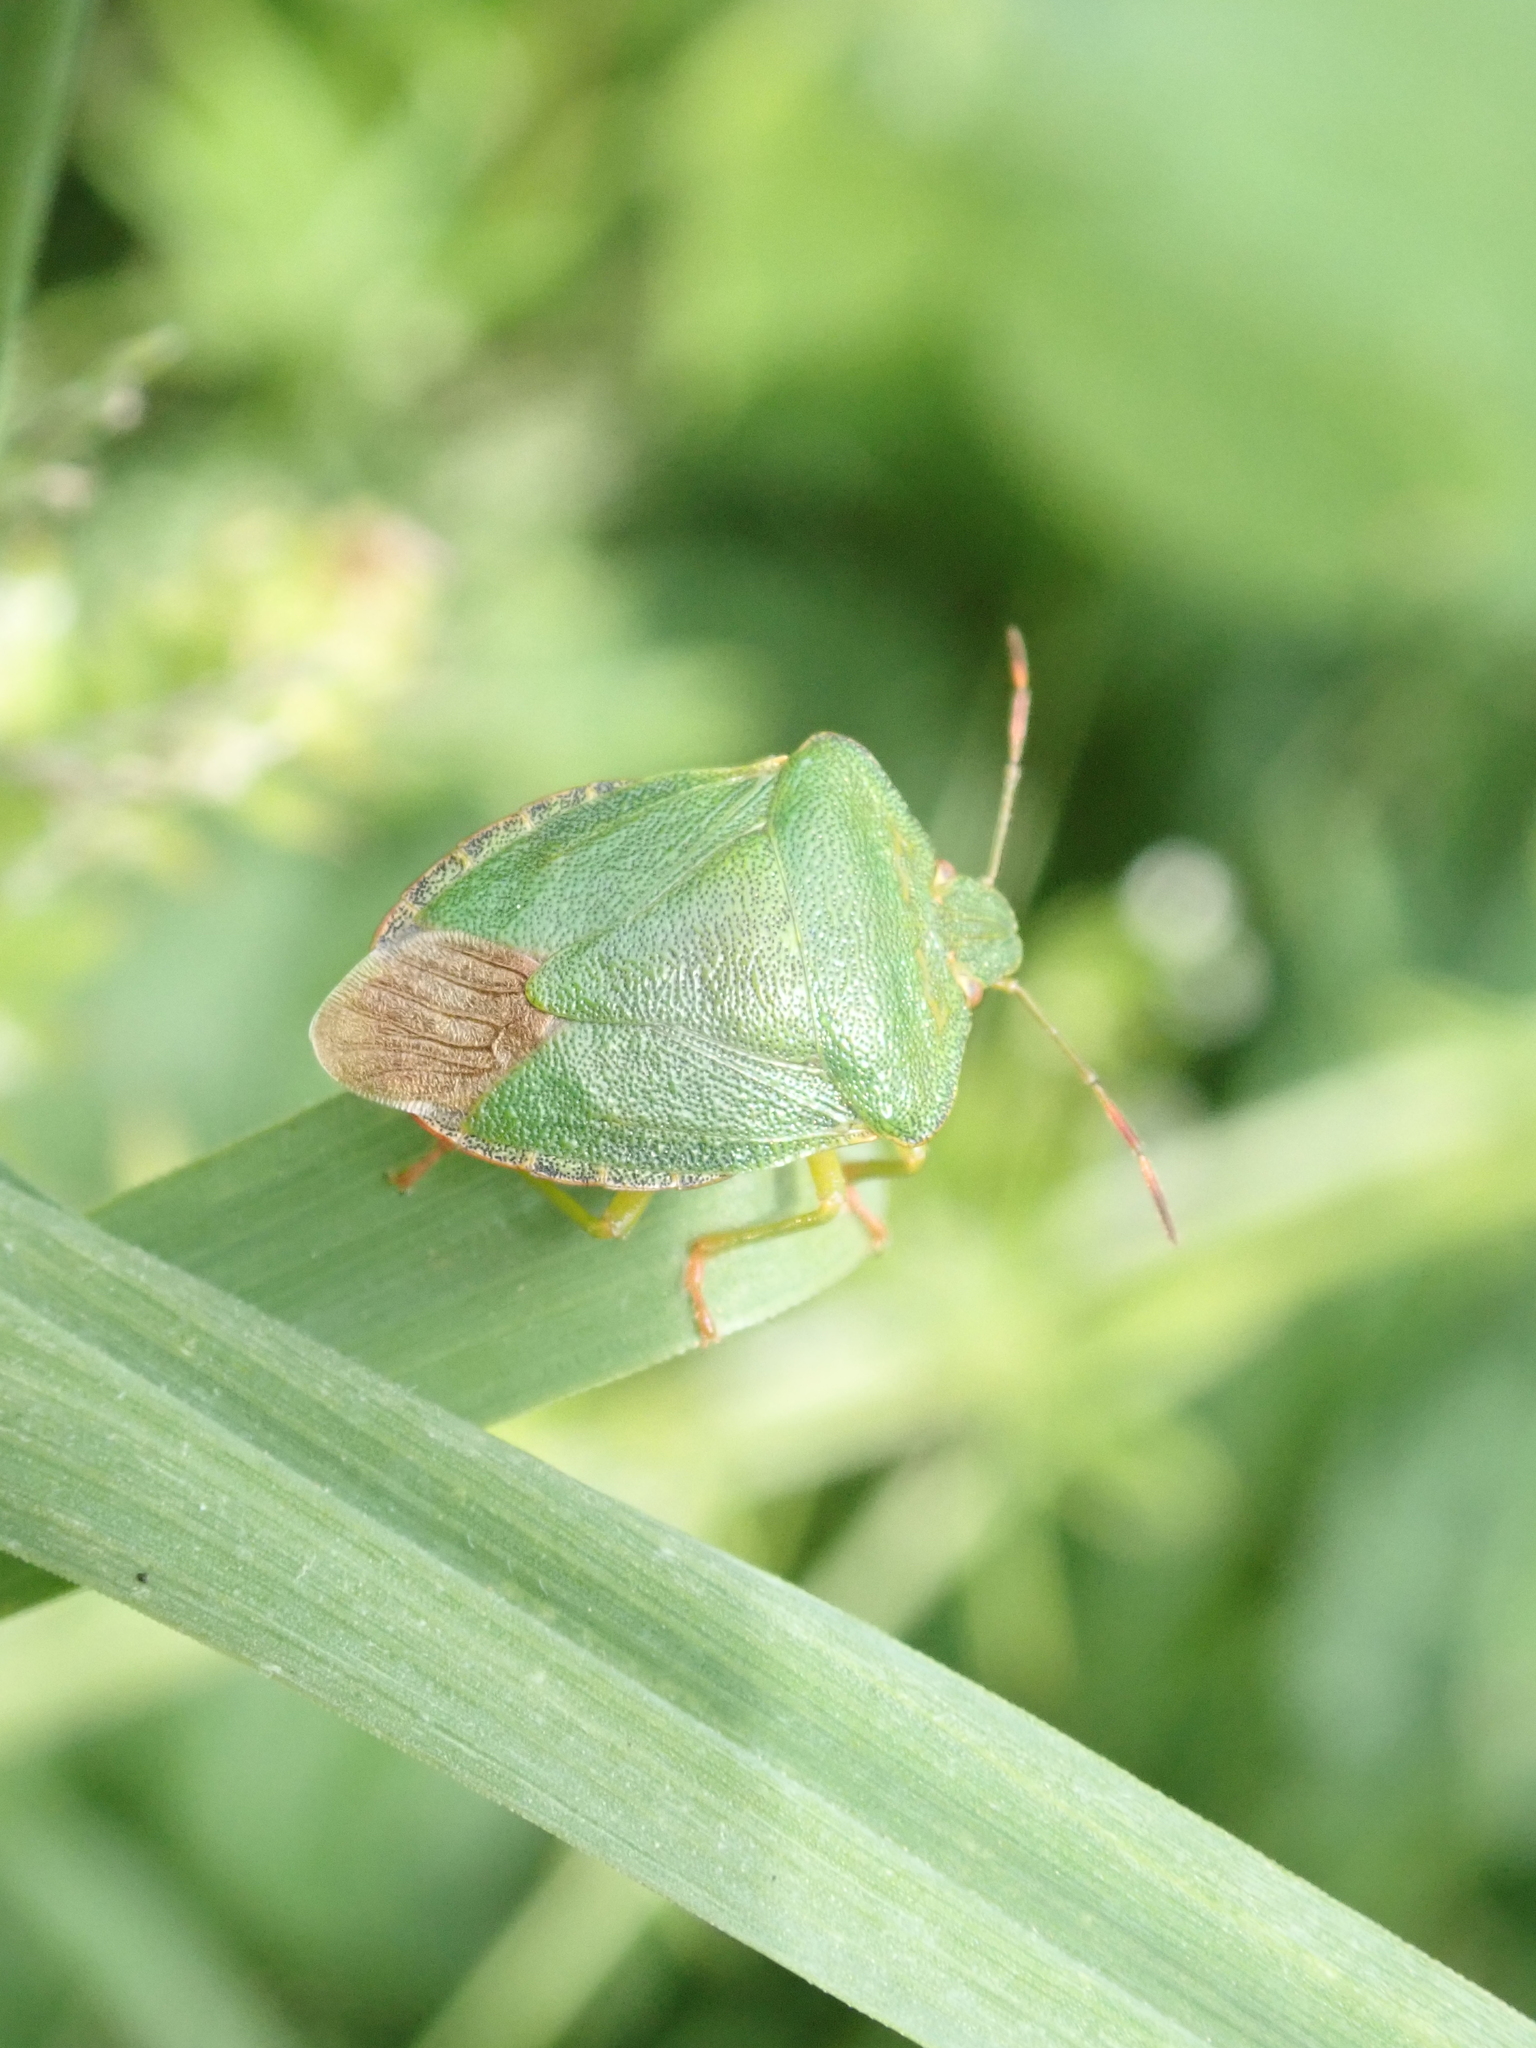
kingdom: Animalia
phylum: Arthropoda
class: Insecta
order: Hemiptera
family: Pentatomidae
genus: Palomena
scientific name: Palomena prasina
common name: Green shieldbug
